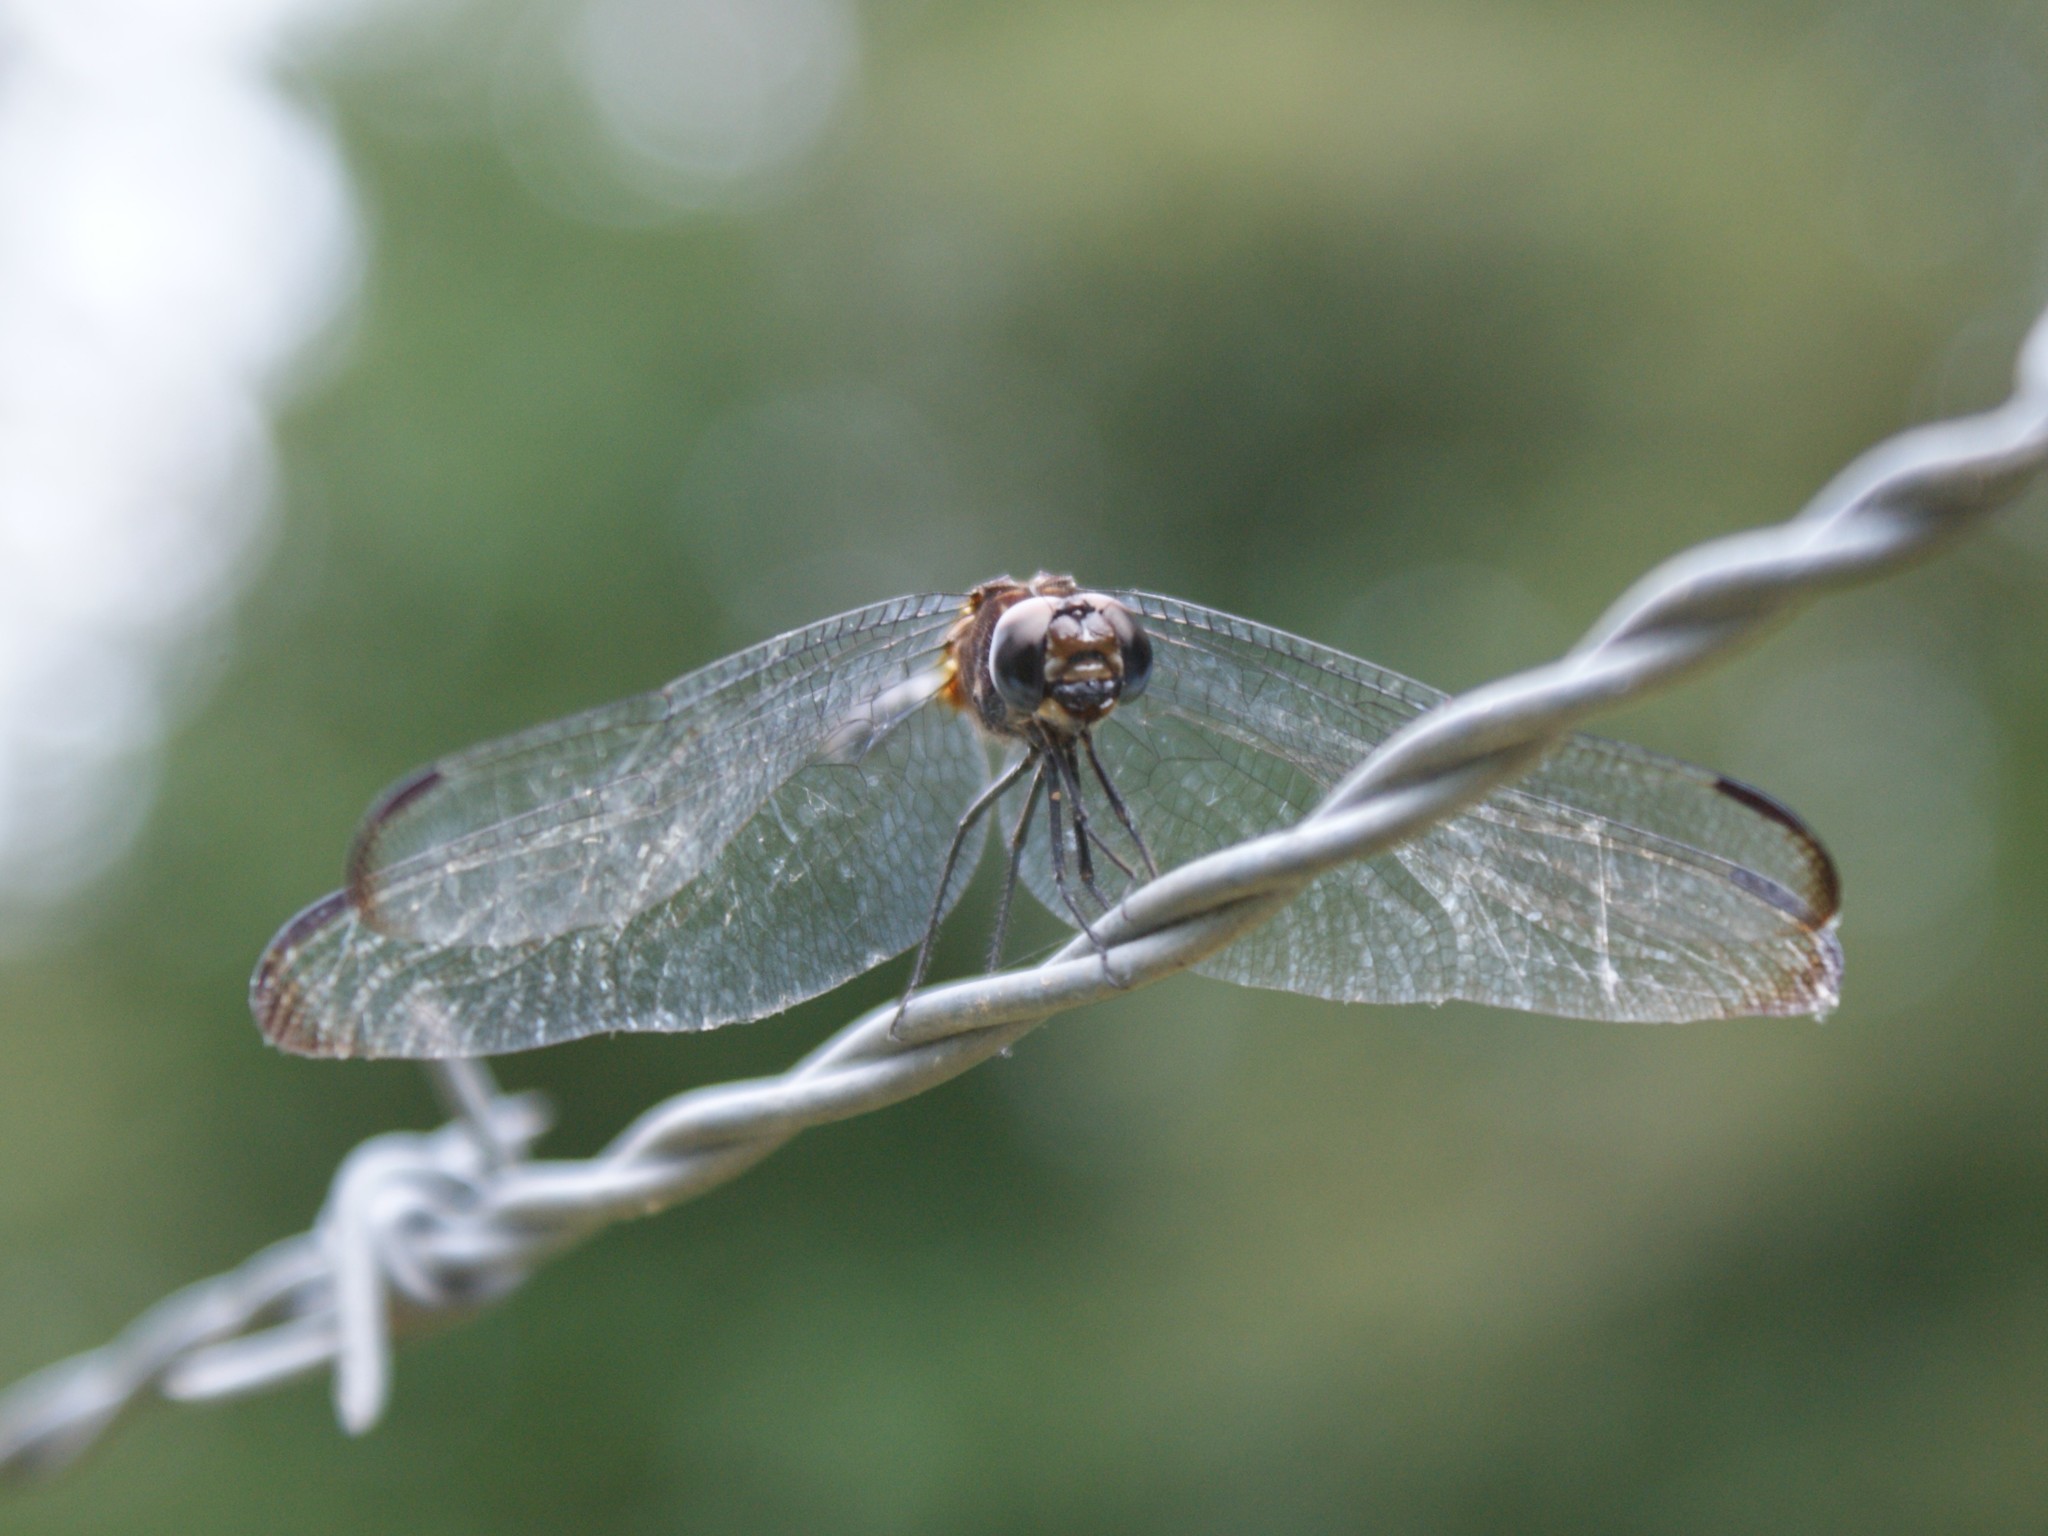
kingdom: Animalia
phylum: Arthropoda
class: Insecta
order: Odonata
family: Libellulidae
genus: Dythemis
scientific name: Dythemis velox
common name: Swift setwing
